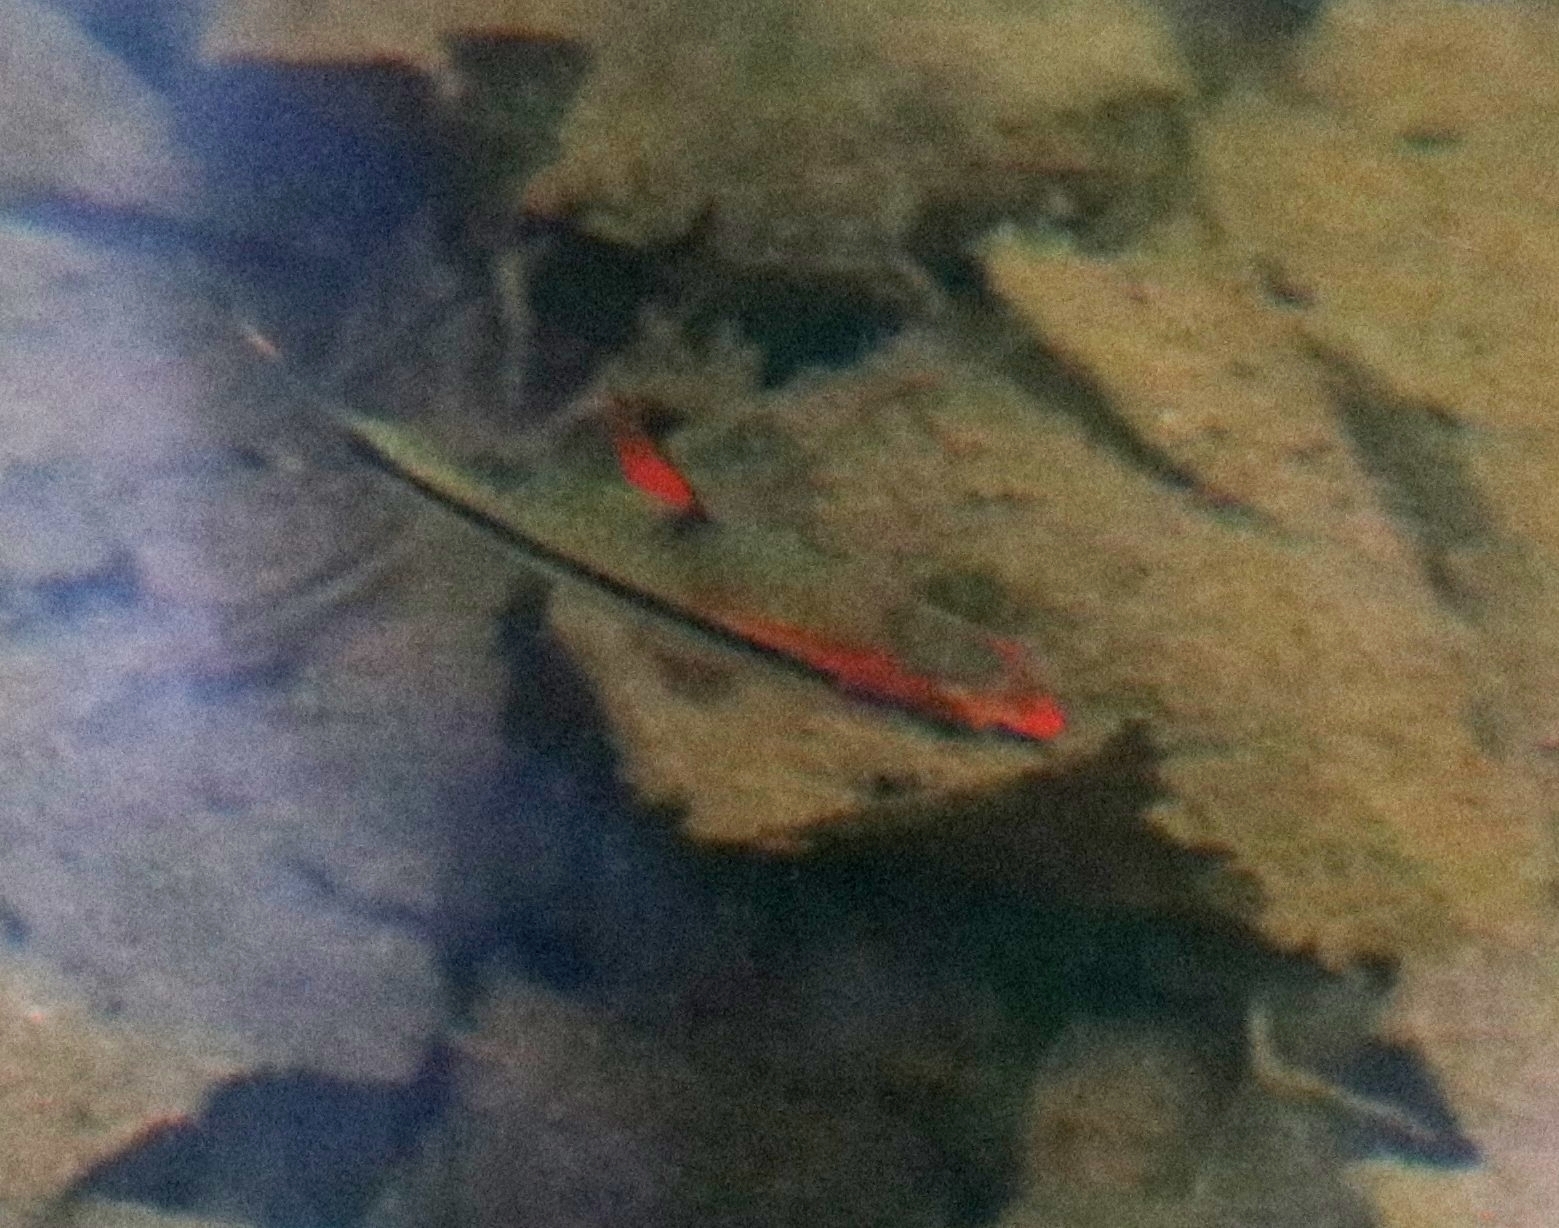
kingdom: Animalia
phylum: Chordata
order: Cypriniformes
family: Cyprinidae
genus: Sahyadria
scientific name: Sahyadria denisonii
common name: Denison barb
